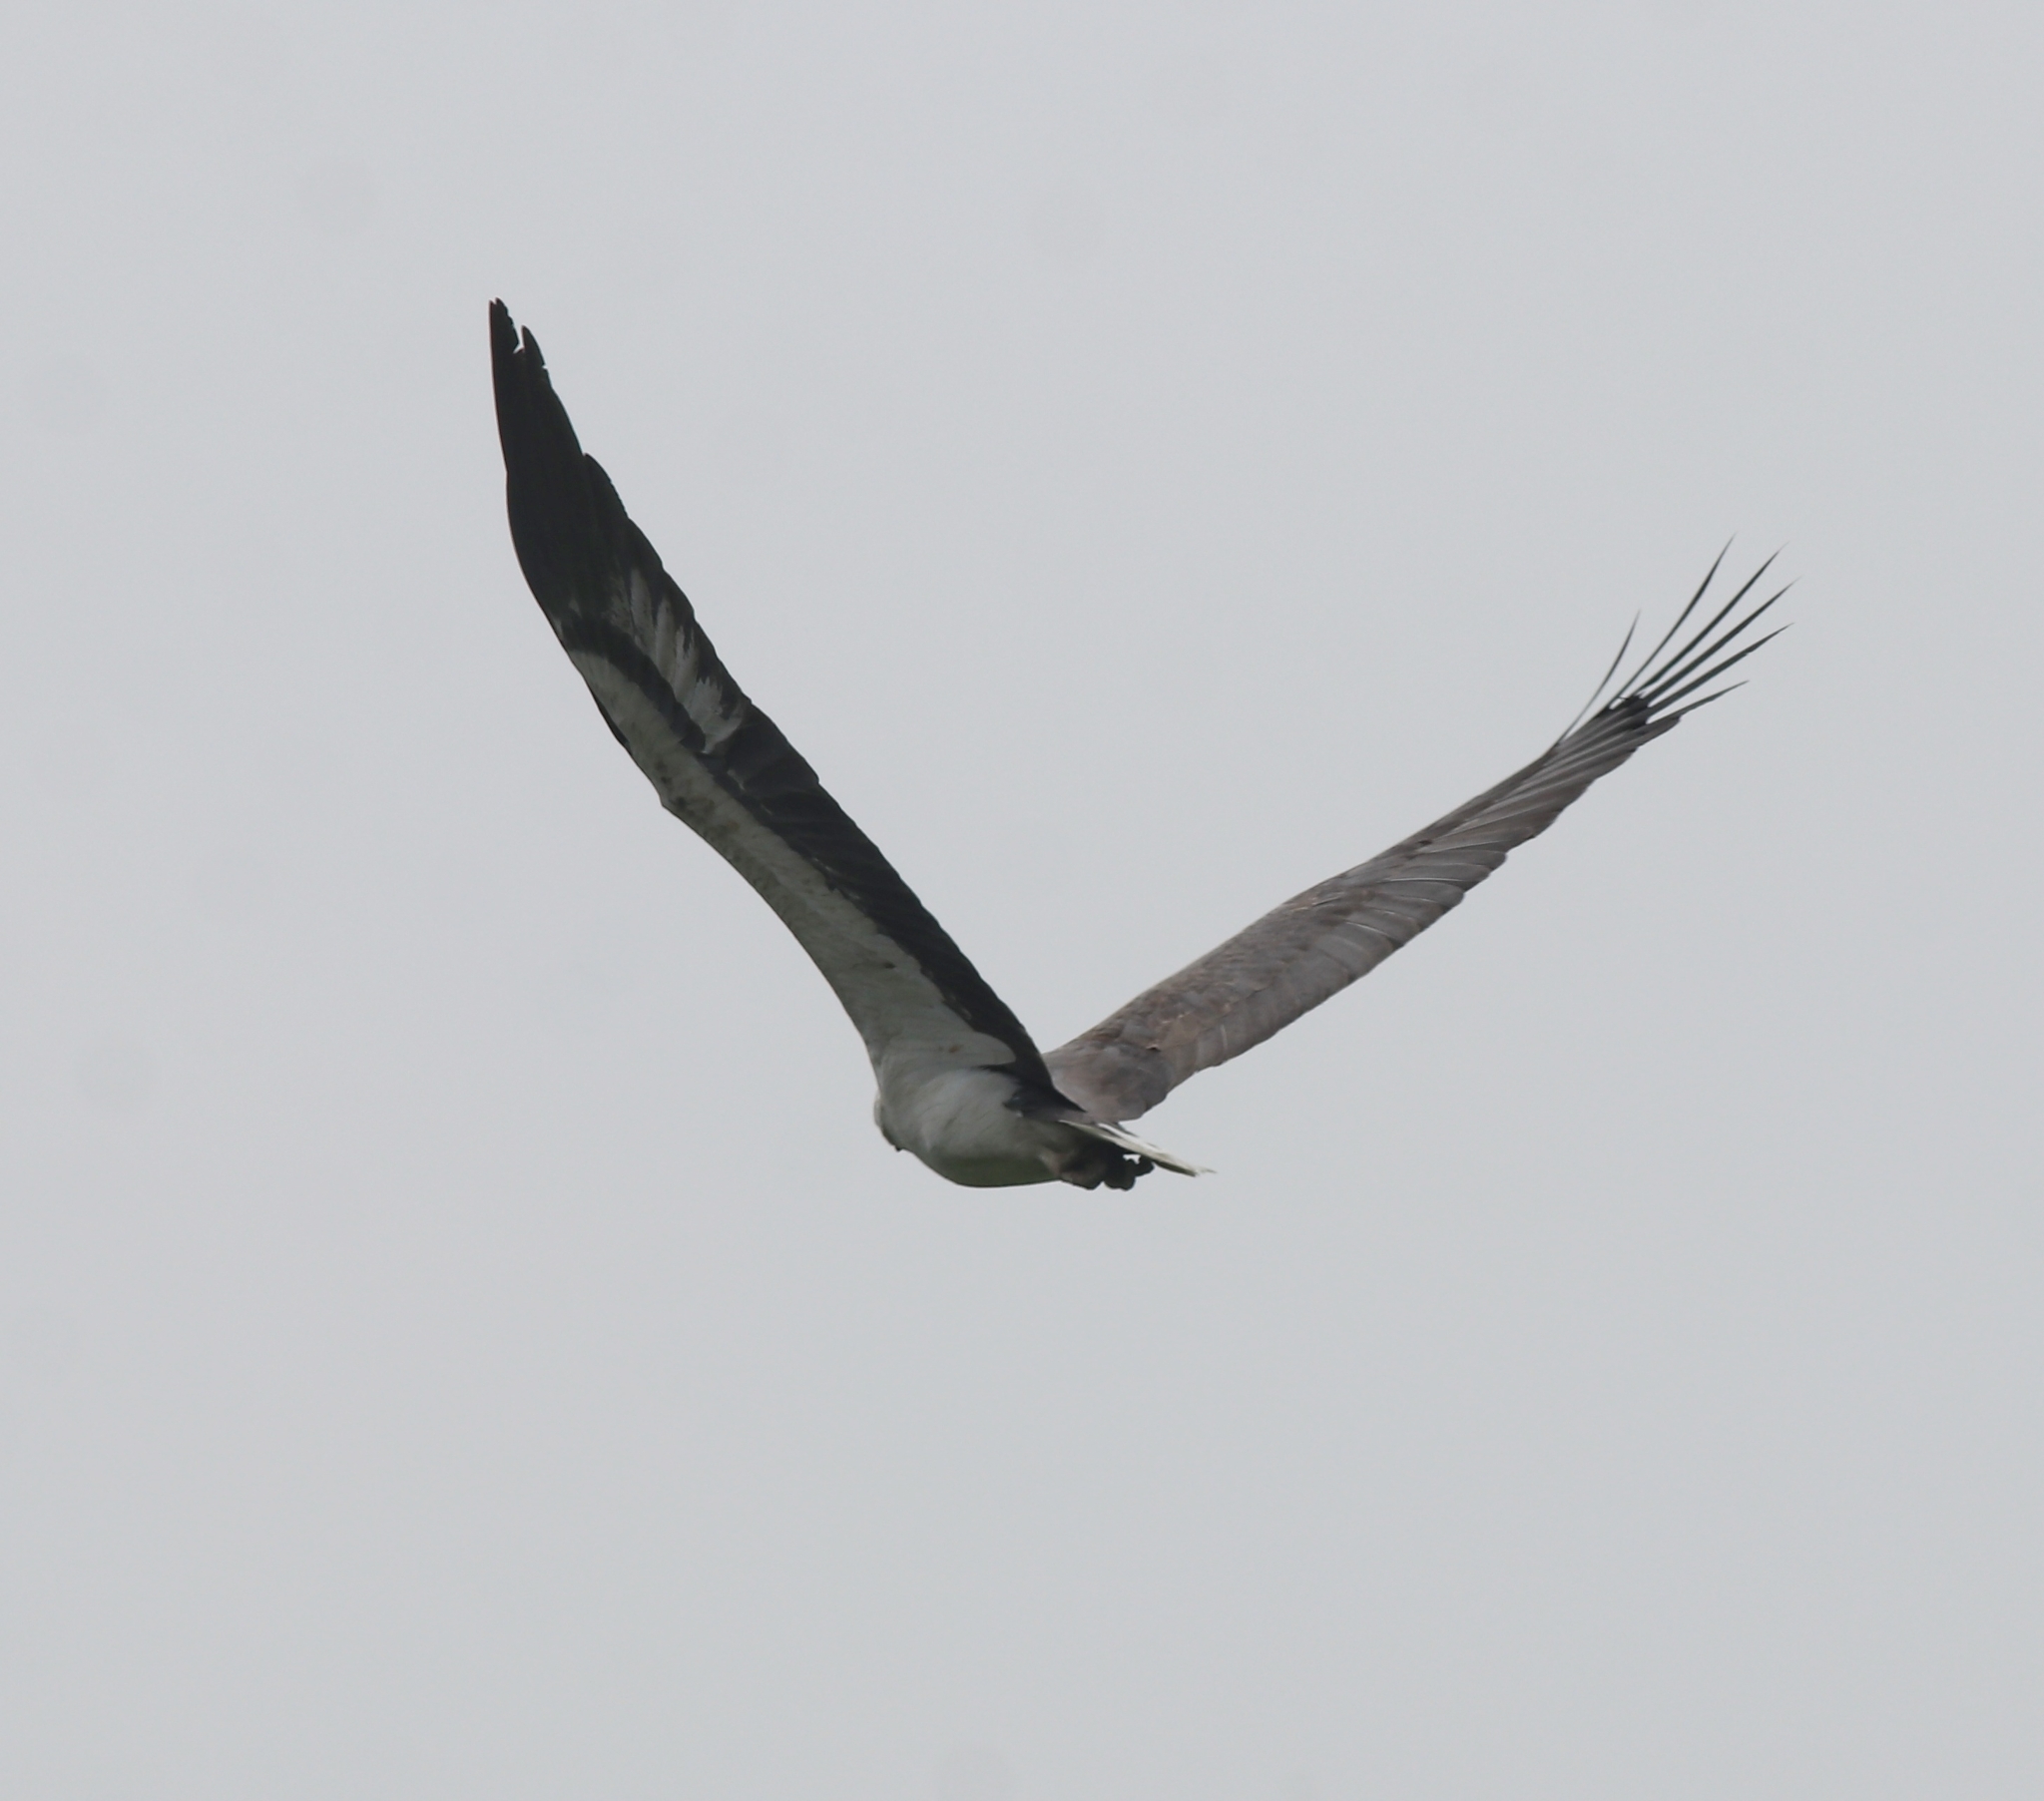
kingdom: Animalia
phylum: Chordata
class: Aves
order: Accipitriformes
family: Accipitridae
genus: Haliaeetus
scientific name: Haliaeetus leucogaster
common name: White-bellied sea eagle
